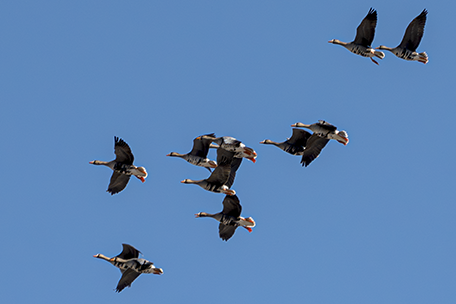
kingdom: Animalia
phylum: Chordata
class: Aves
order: Anseriformes
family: Anatidae
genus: Anser
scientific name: Anser albifrons
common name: Greater white-fronted goose
